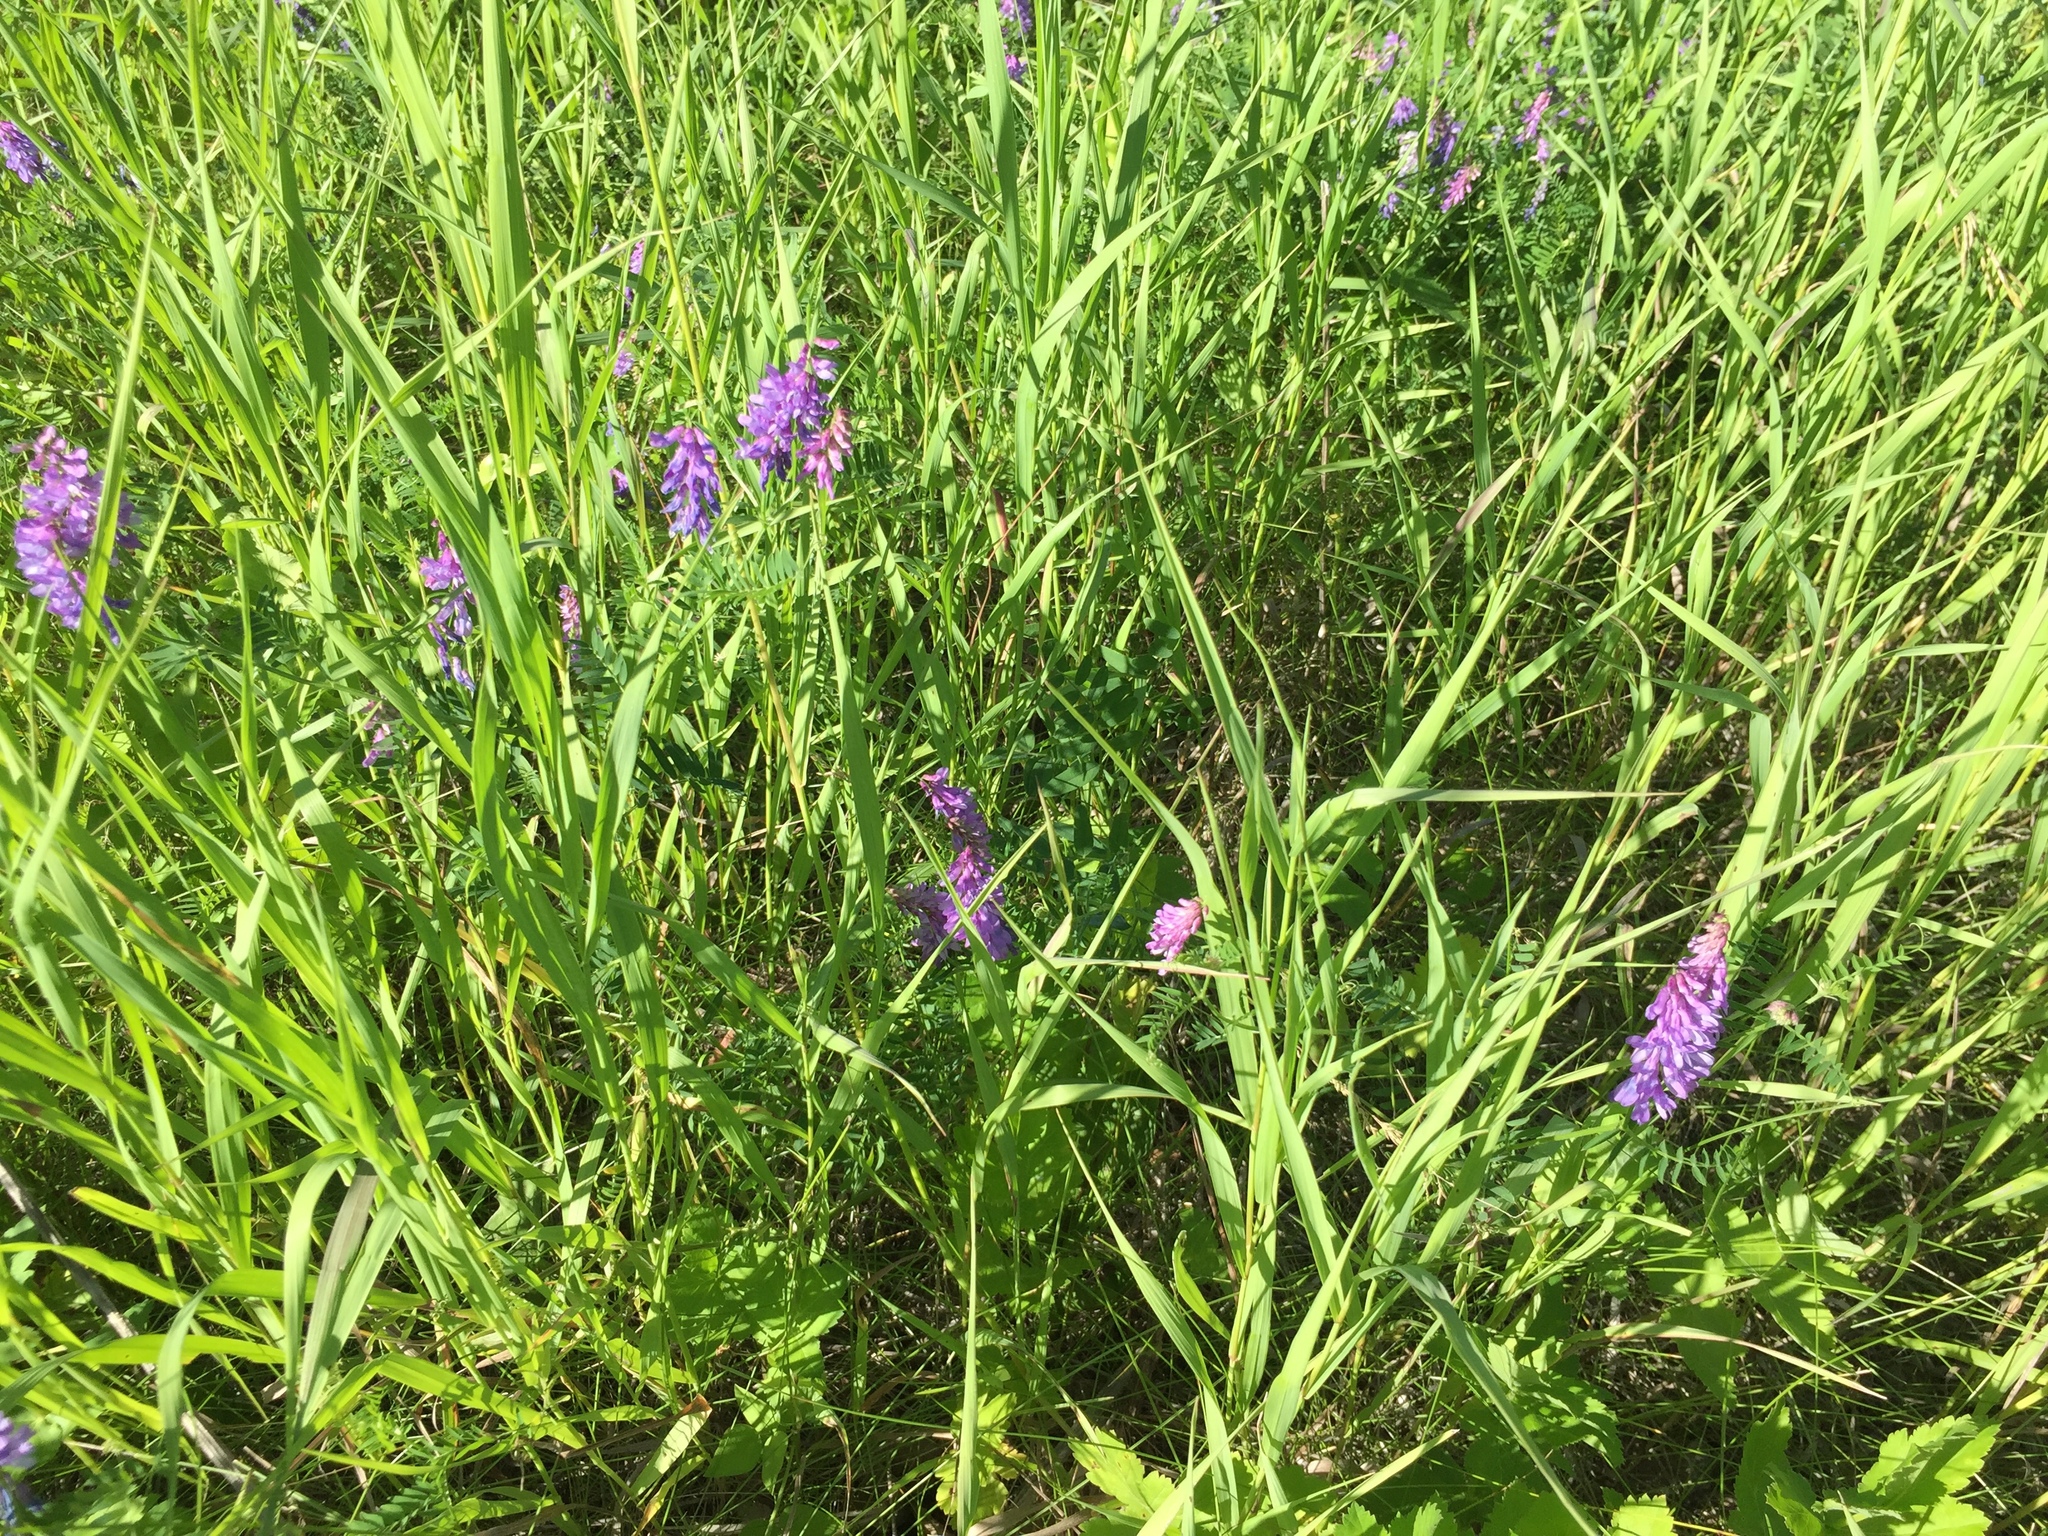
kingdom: Plantae
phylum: Tracheophyta
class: Magnoliopsida
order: Fabales
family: Fabaceae
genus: Vicia
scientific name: Vicia cracca
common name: Bird vetch
